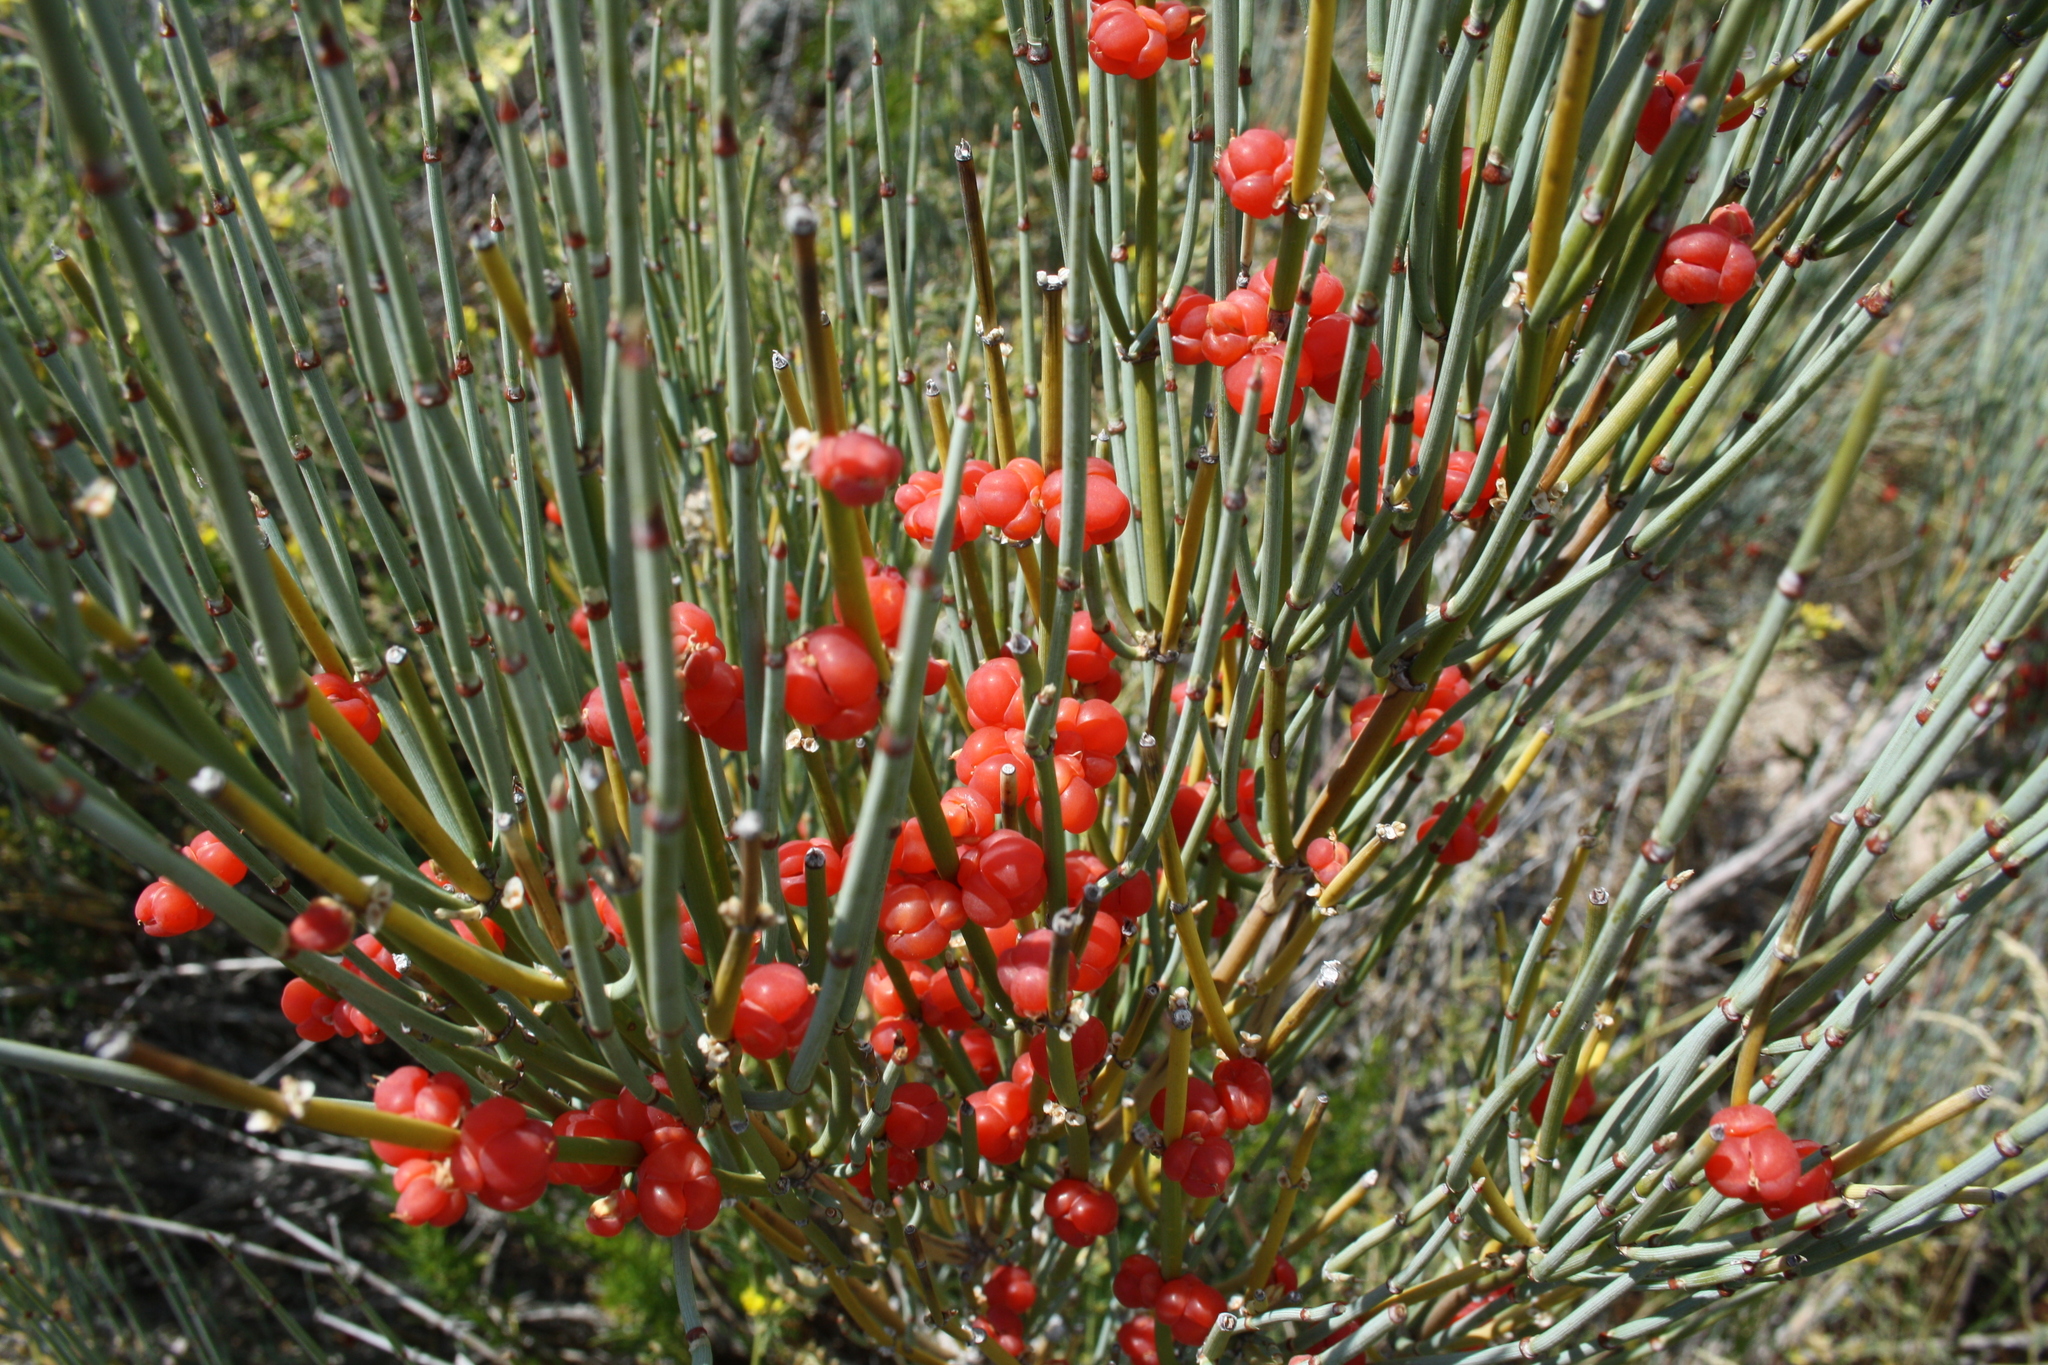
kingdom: Plantae
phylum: Tracheophyta
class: Gnetopsida
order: Ephedrales
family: Ephedraceae
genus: Ephedra
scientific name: Ephedra intermedia
